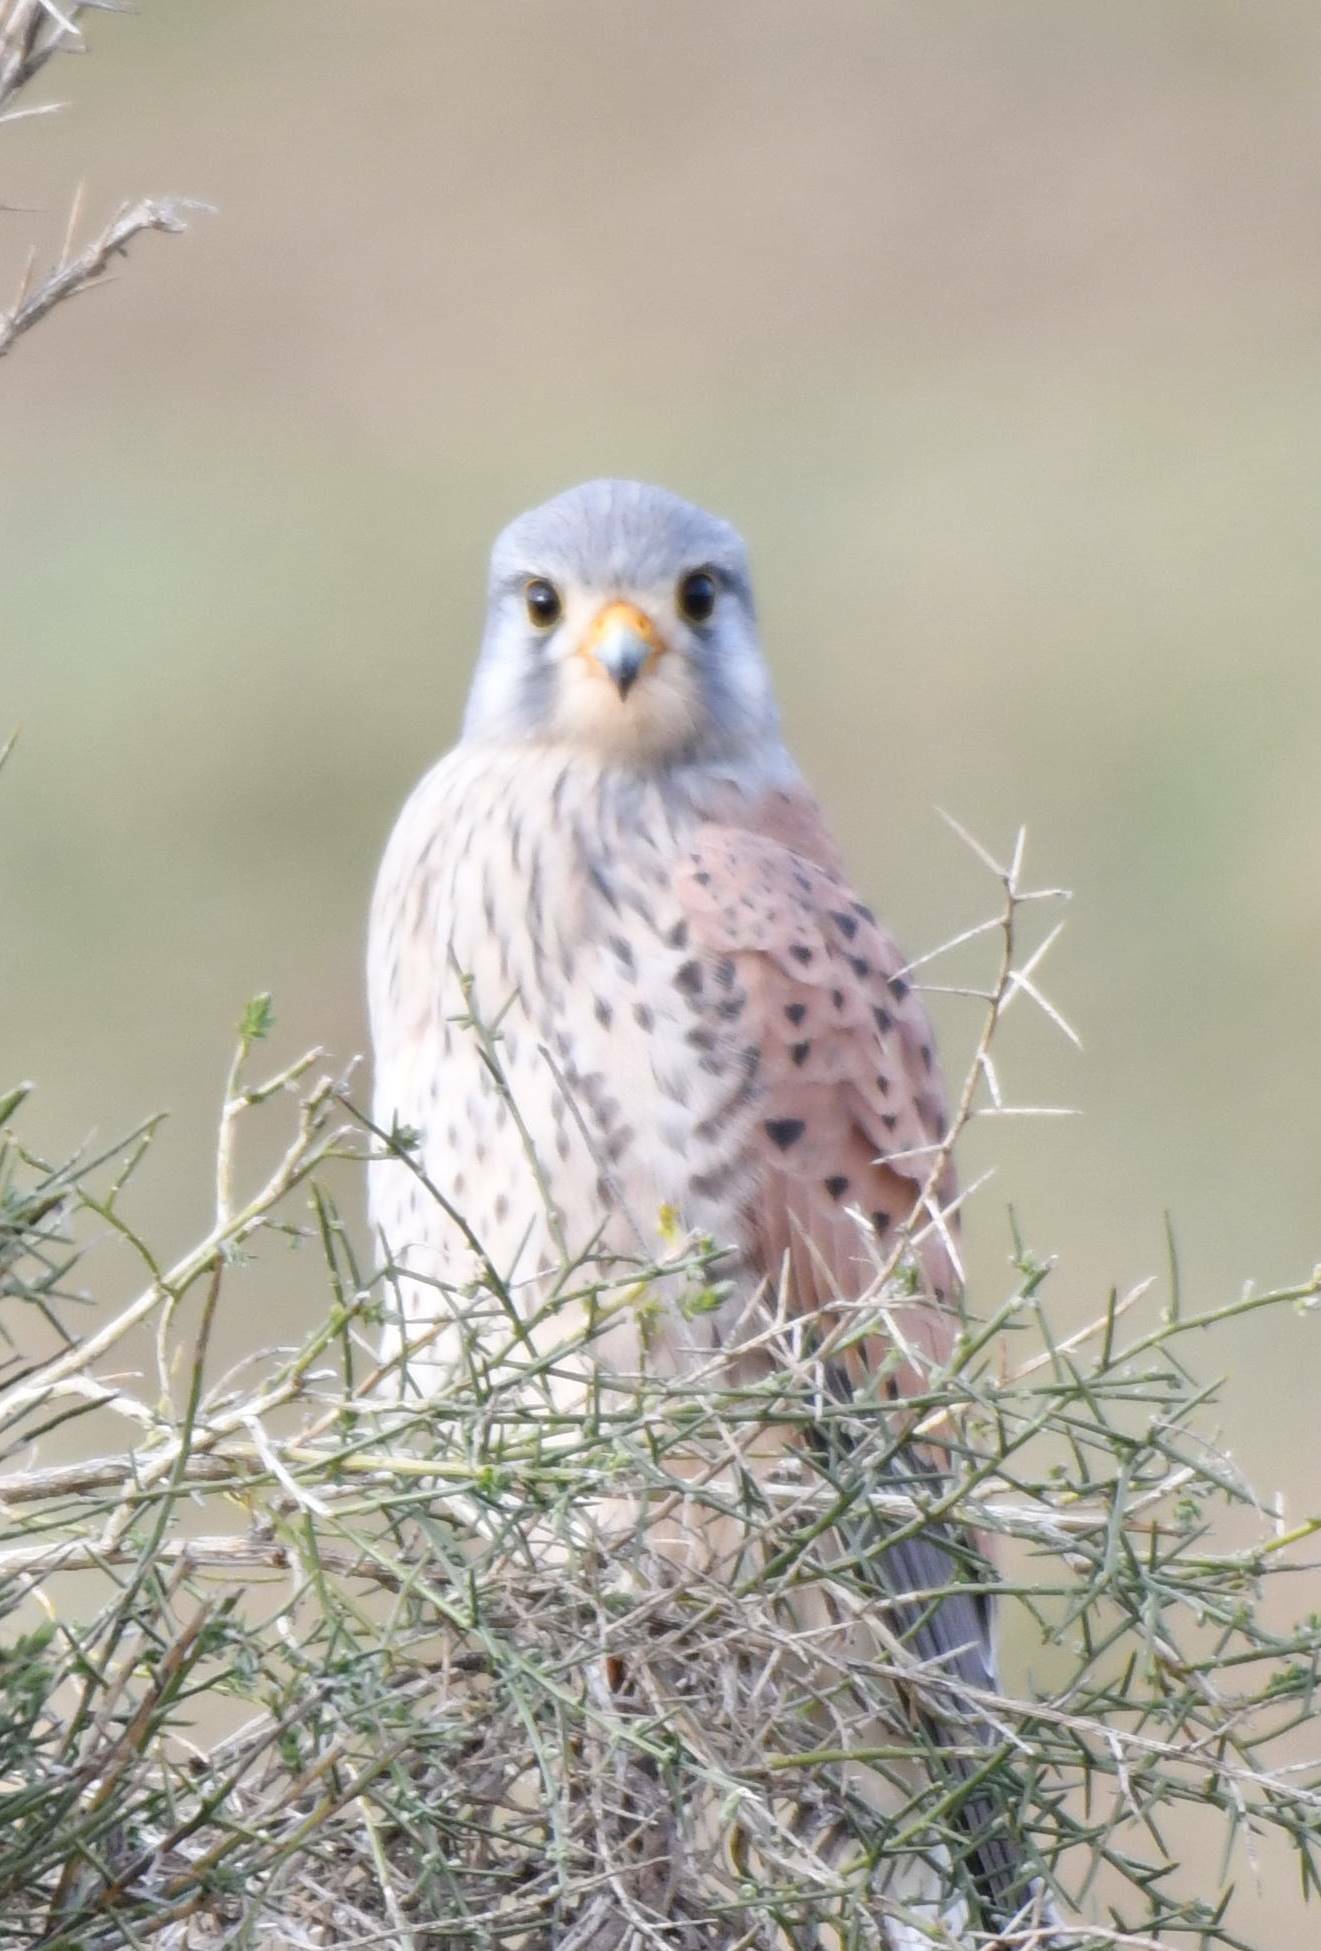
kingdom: Animalia
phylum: Chordata
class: Aves
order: Falconiformes
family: Falconidae
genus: Falco
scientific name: Falco tinnunculus
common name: Common kestrel
